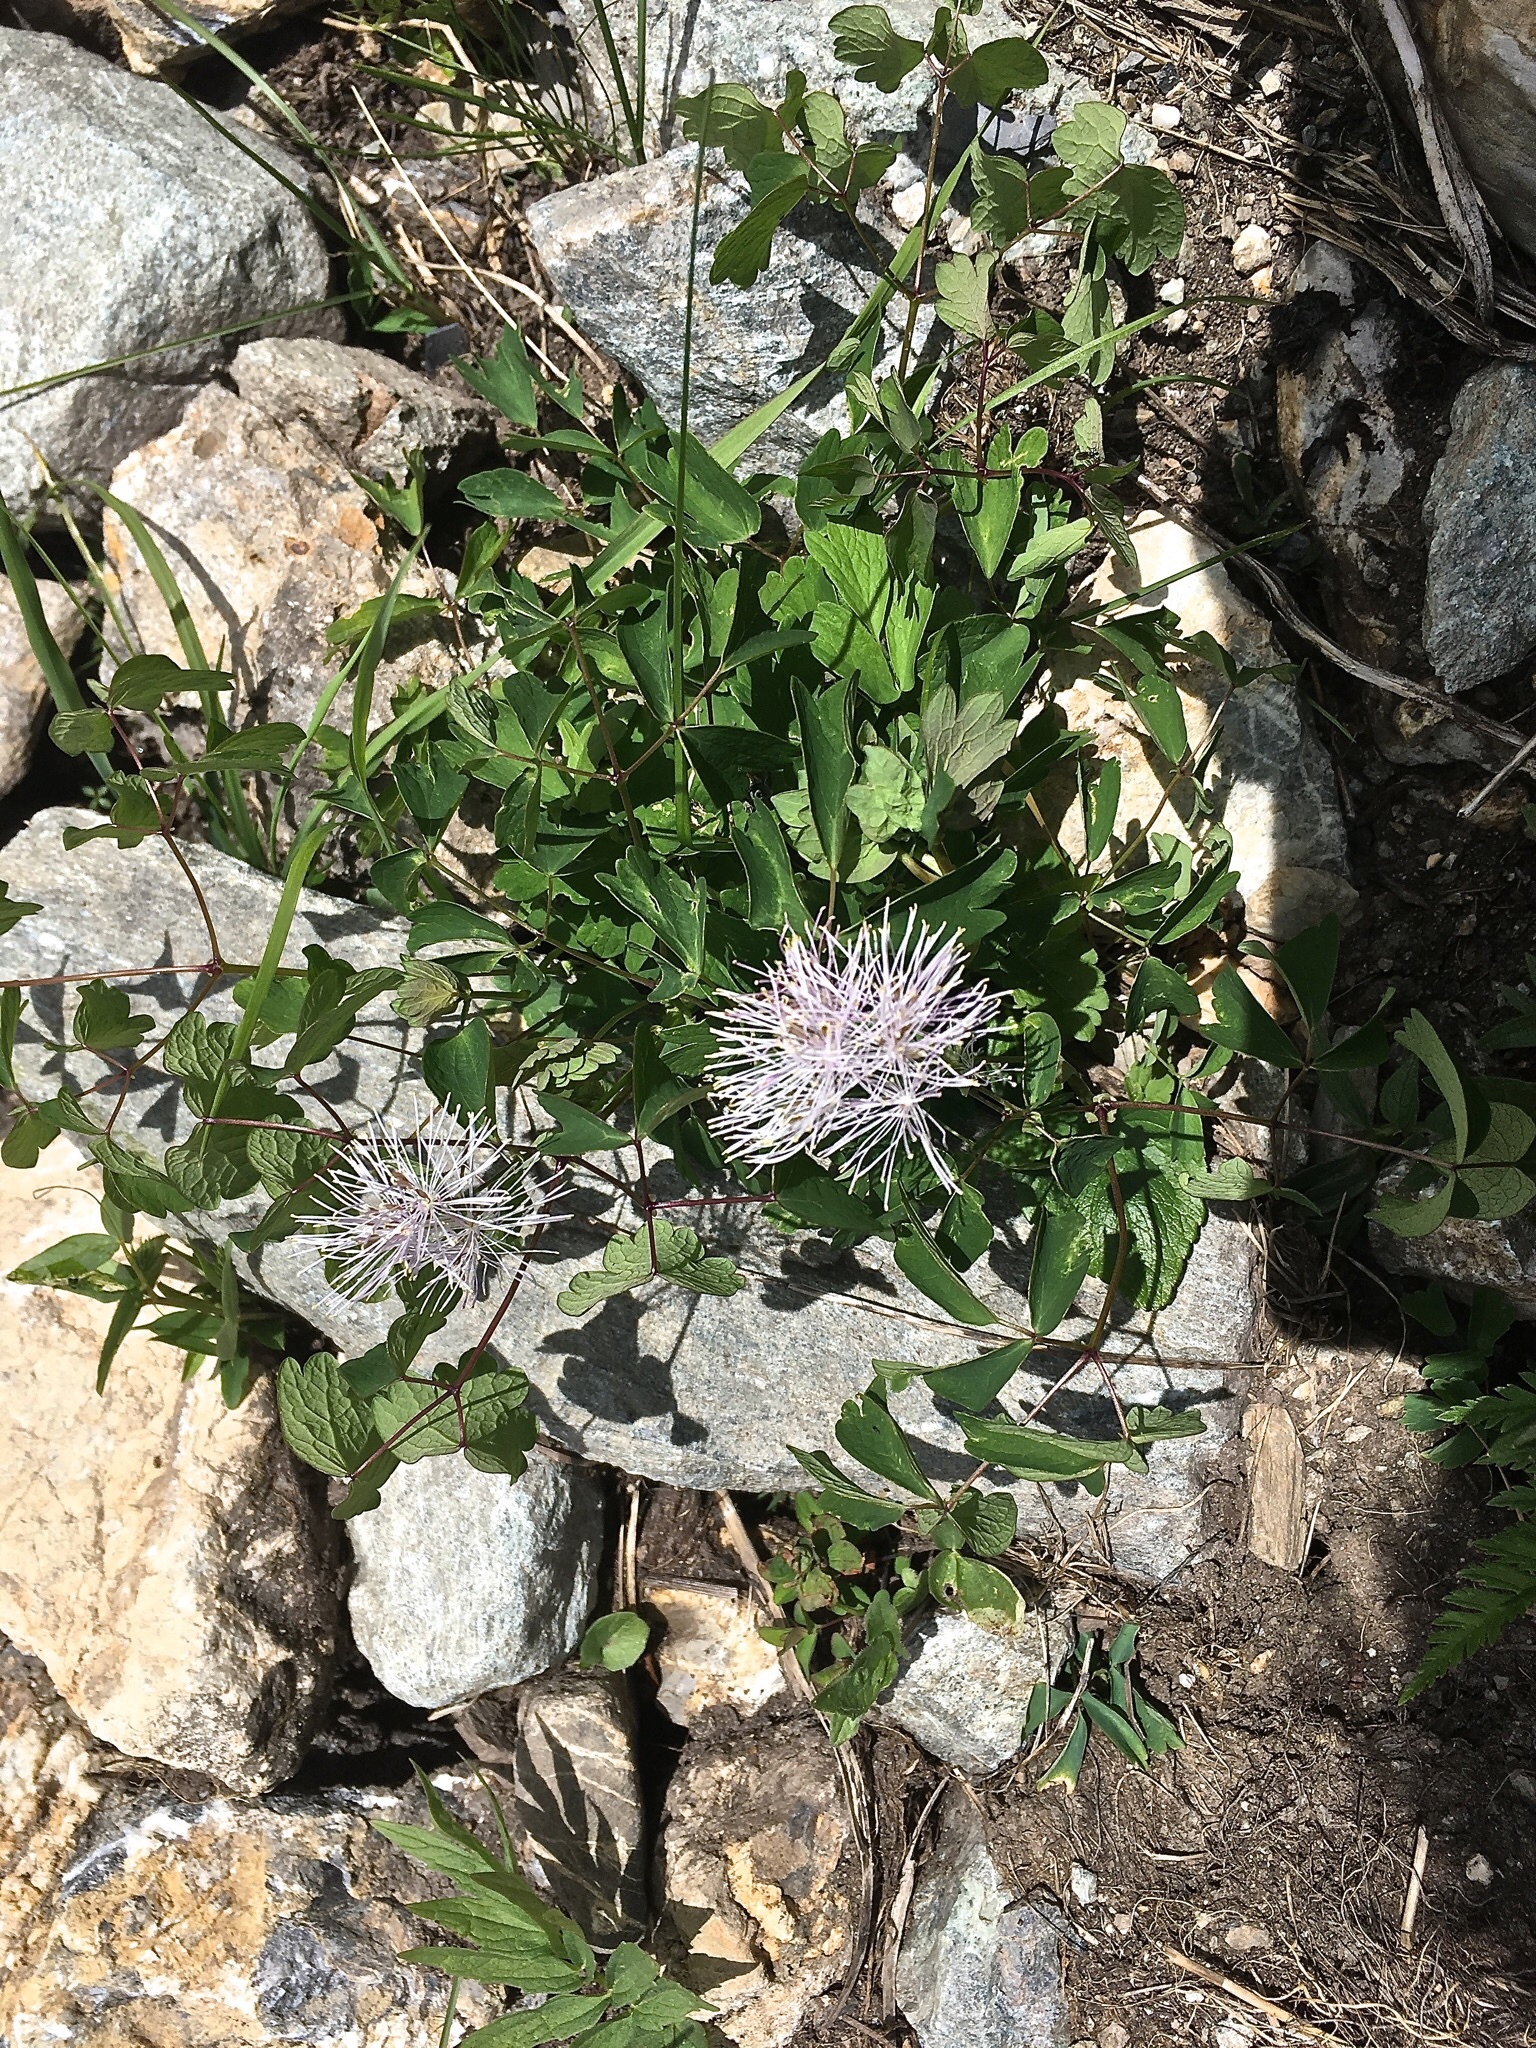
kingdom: Plantae
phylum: Tracheophyta
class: Magnoliopsida
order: Ranunculales
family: Ranunculaceae
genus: Thalictrum
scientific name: Thalictrum aquilegiifolium
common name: French meadow-rue
